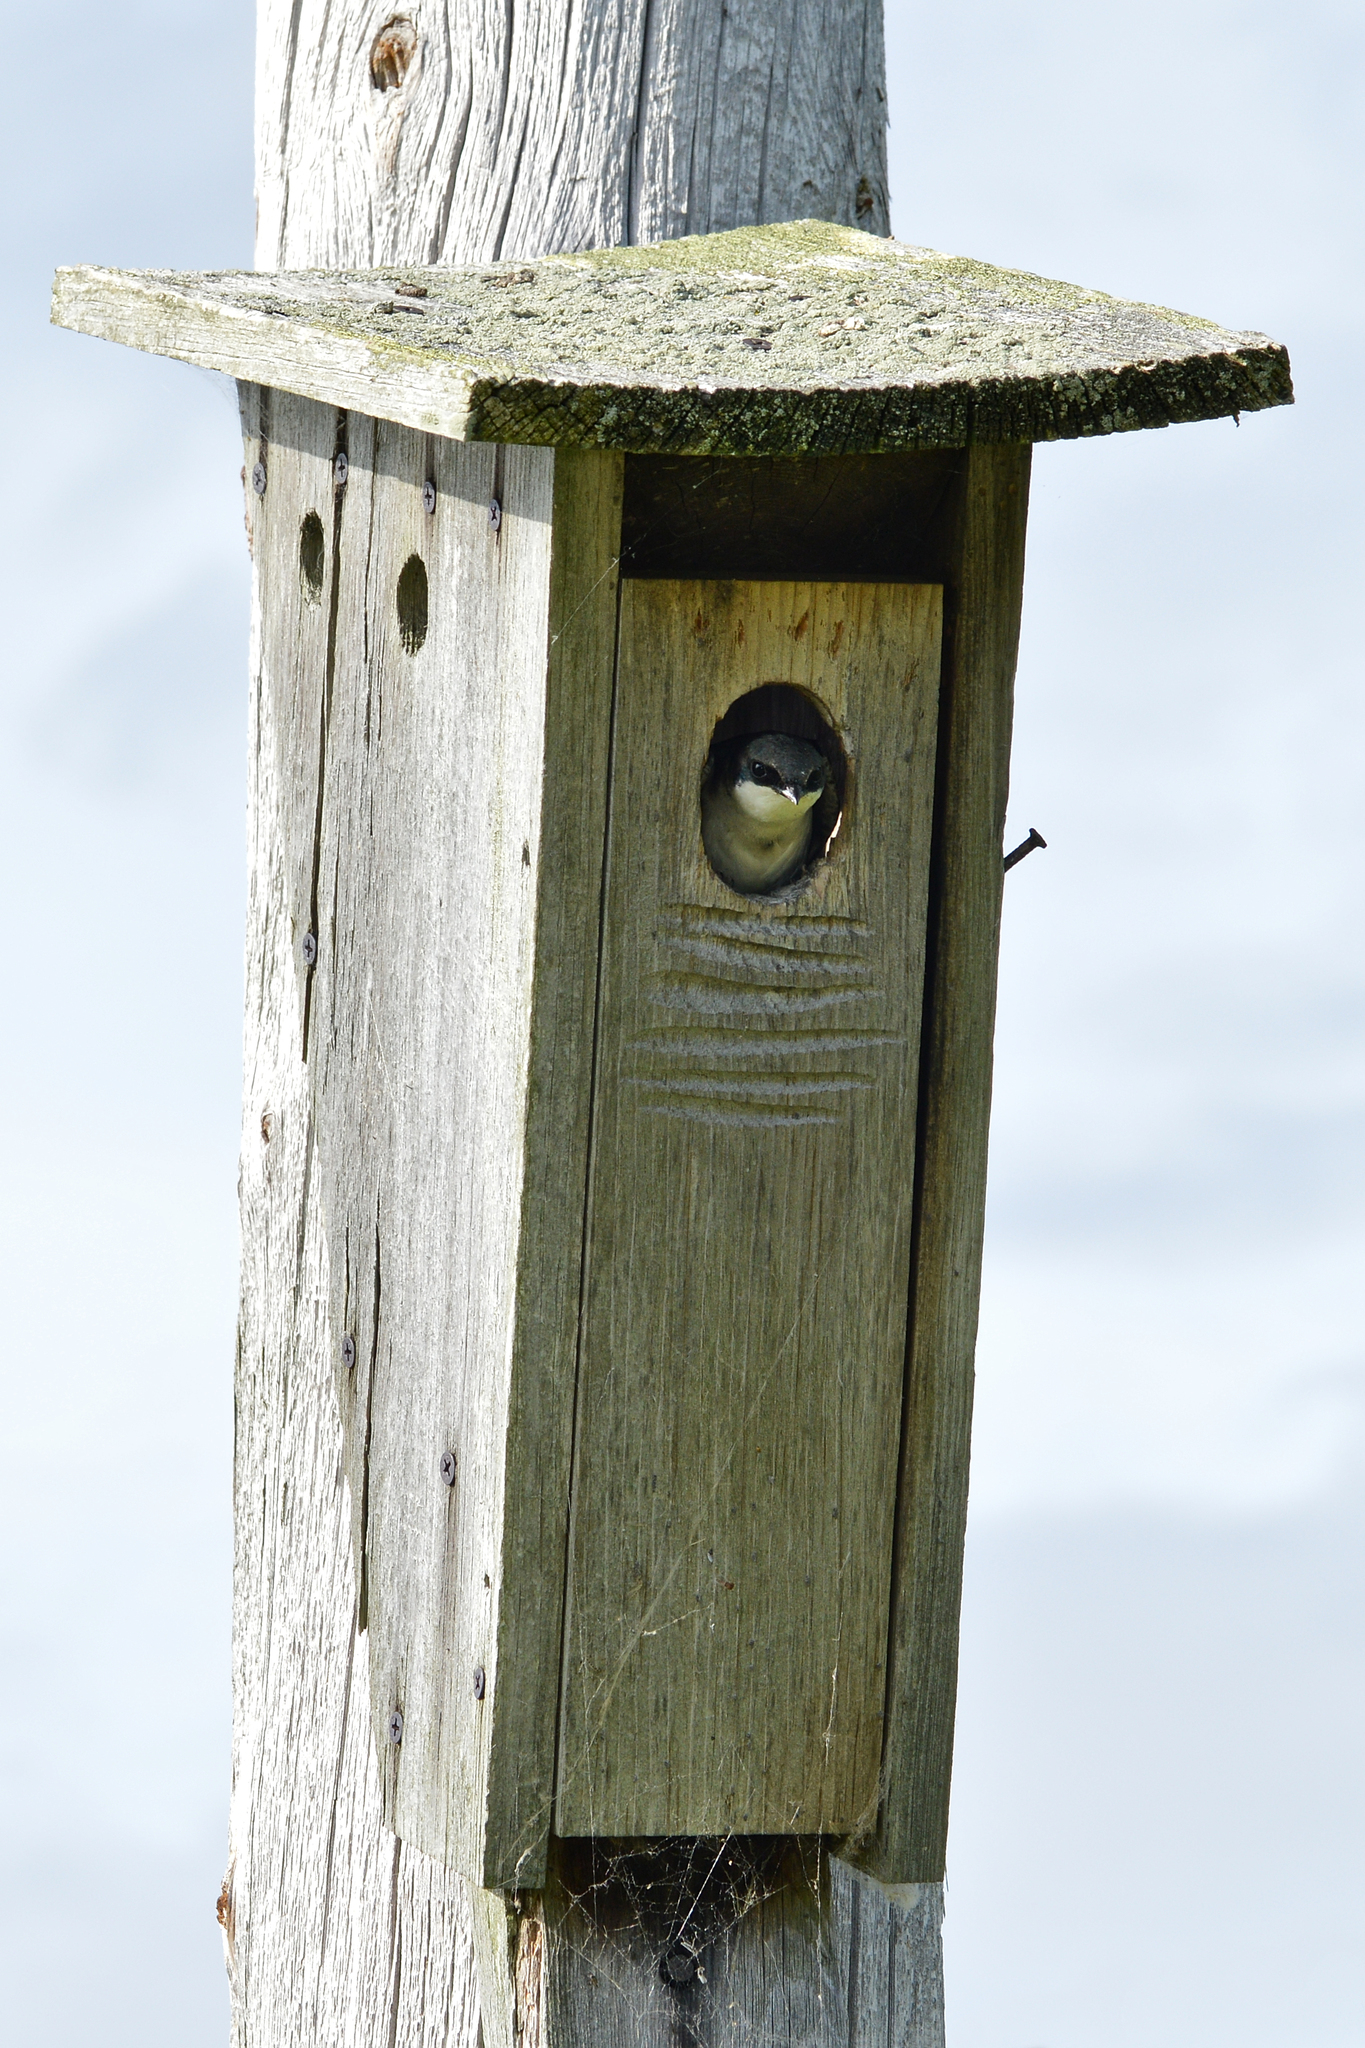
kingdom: Animalia
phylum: Chordata
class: Aves
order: Passeriformes
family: Hirundinidae
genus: Tachycineta
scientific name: Tachycineta bicolor
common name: Tree swallow
